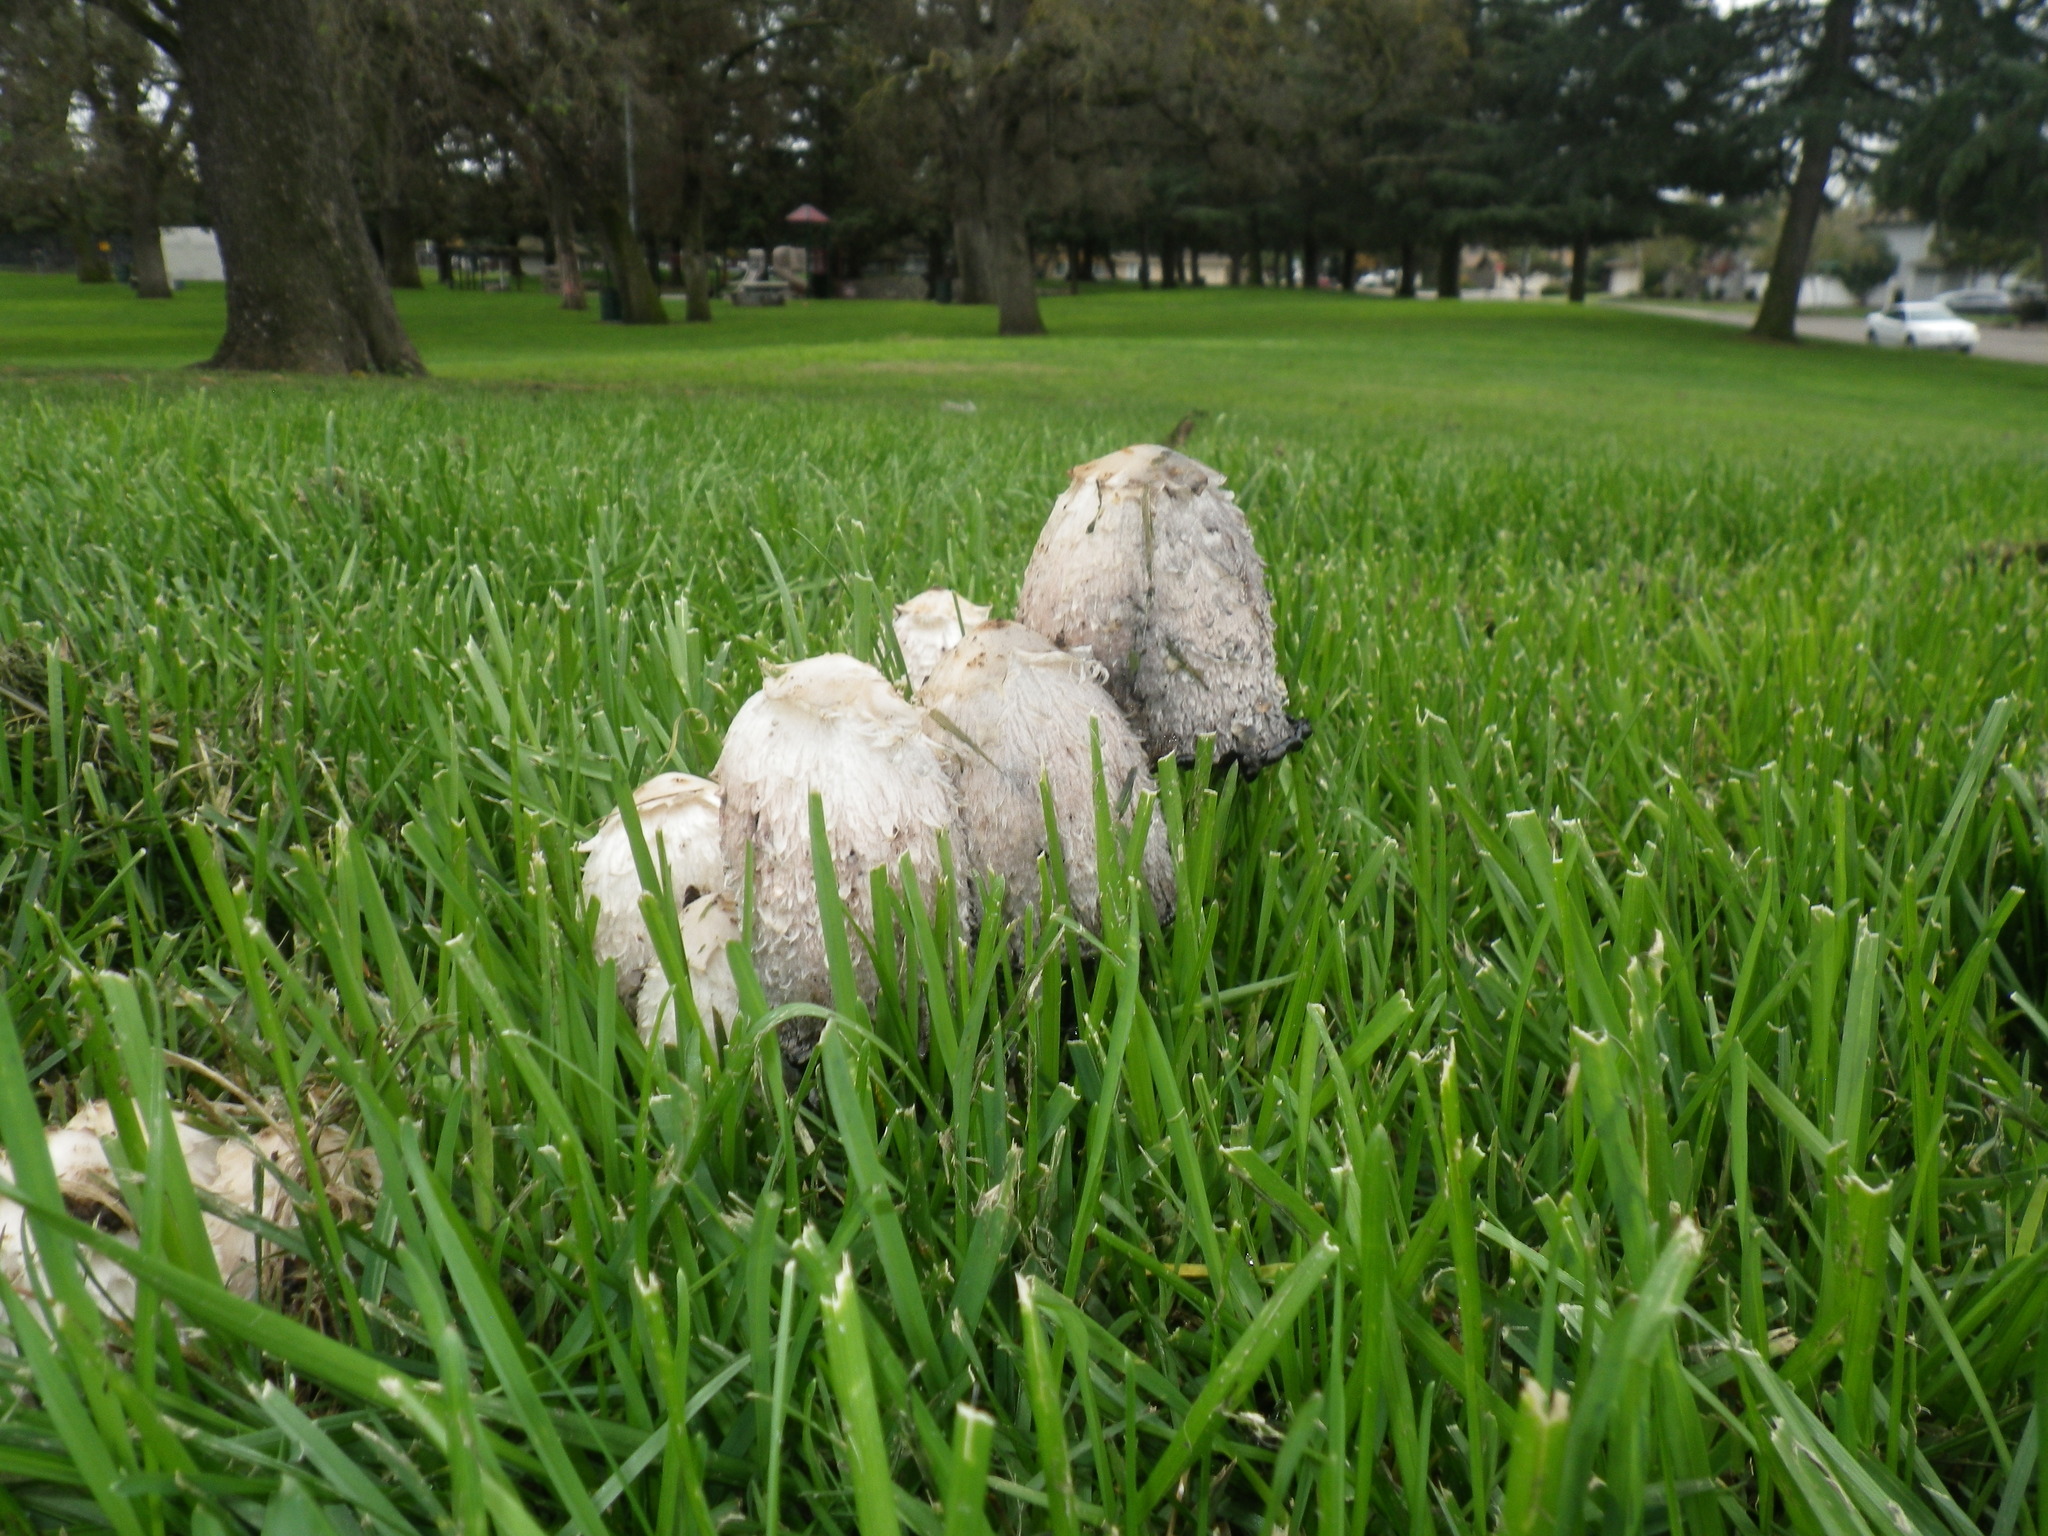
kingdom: Fungi
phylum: Basidiomycota
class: Agaricomycetes
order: Agaricales
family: Agaricaceae
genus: Coprinus
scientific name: Coprinus comatus
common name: Lawyer's wig
